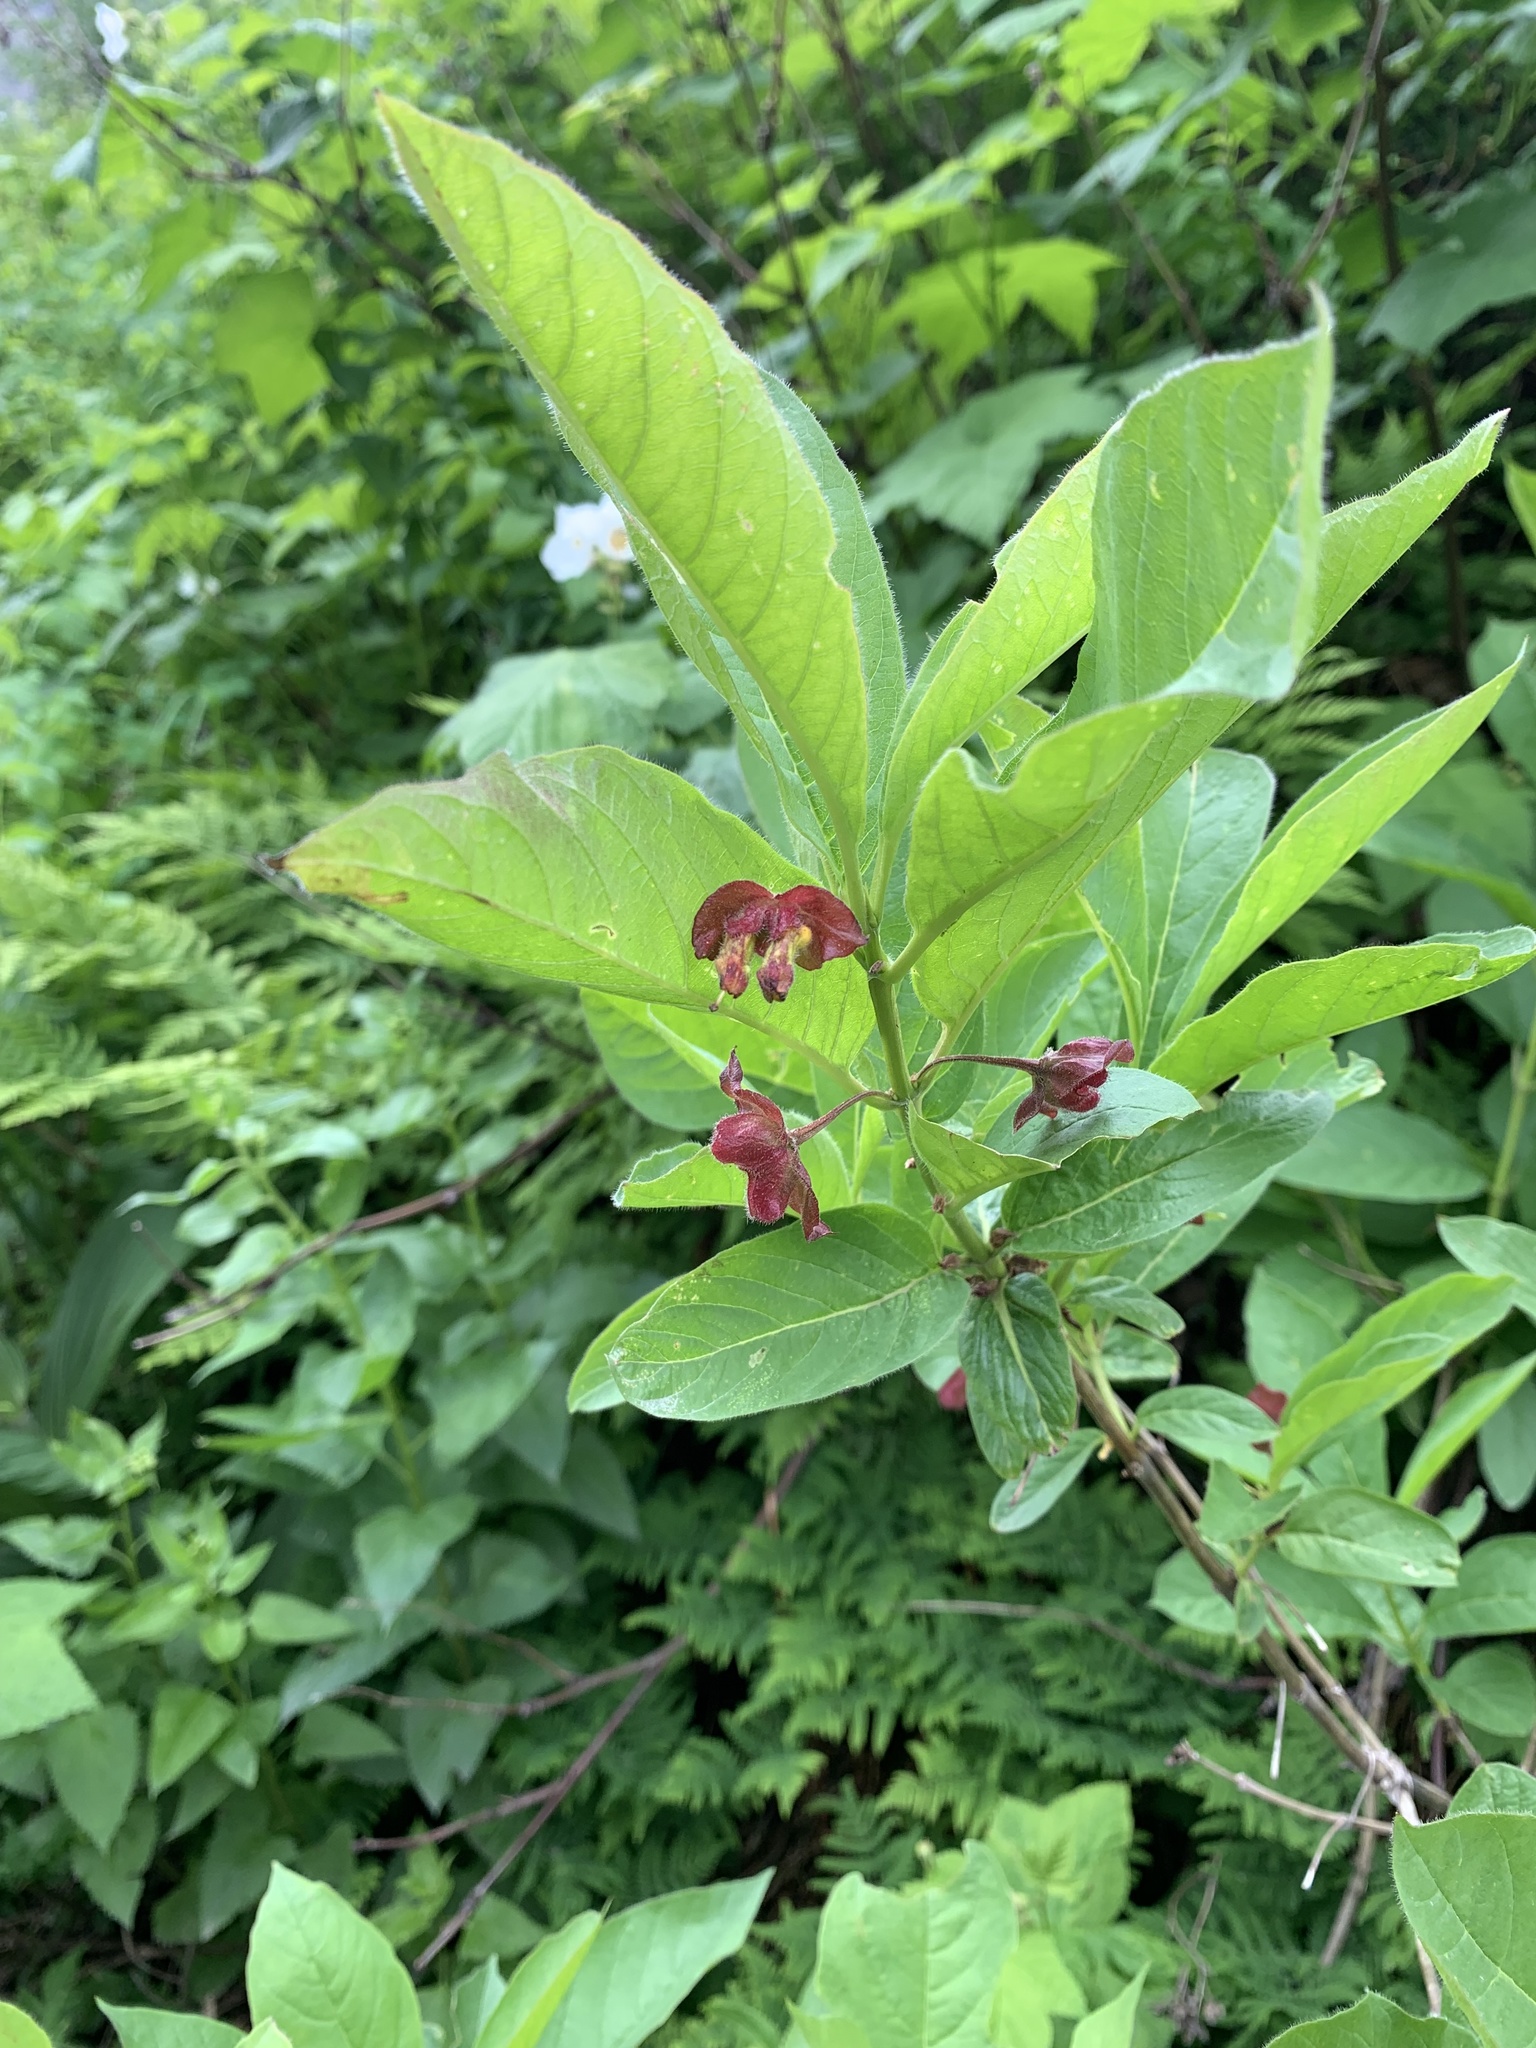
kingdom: Plantae
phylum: Tracheophyta
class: Magnoliopsida
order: Dipsacales
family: Caprifoliaceae
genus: Lonicera
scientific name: Lonicera involucrata
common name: Californian honeysuckle
